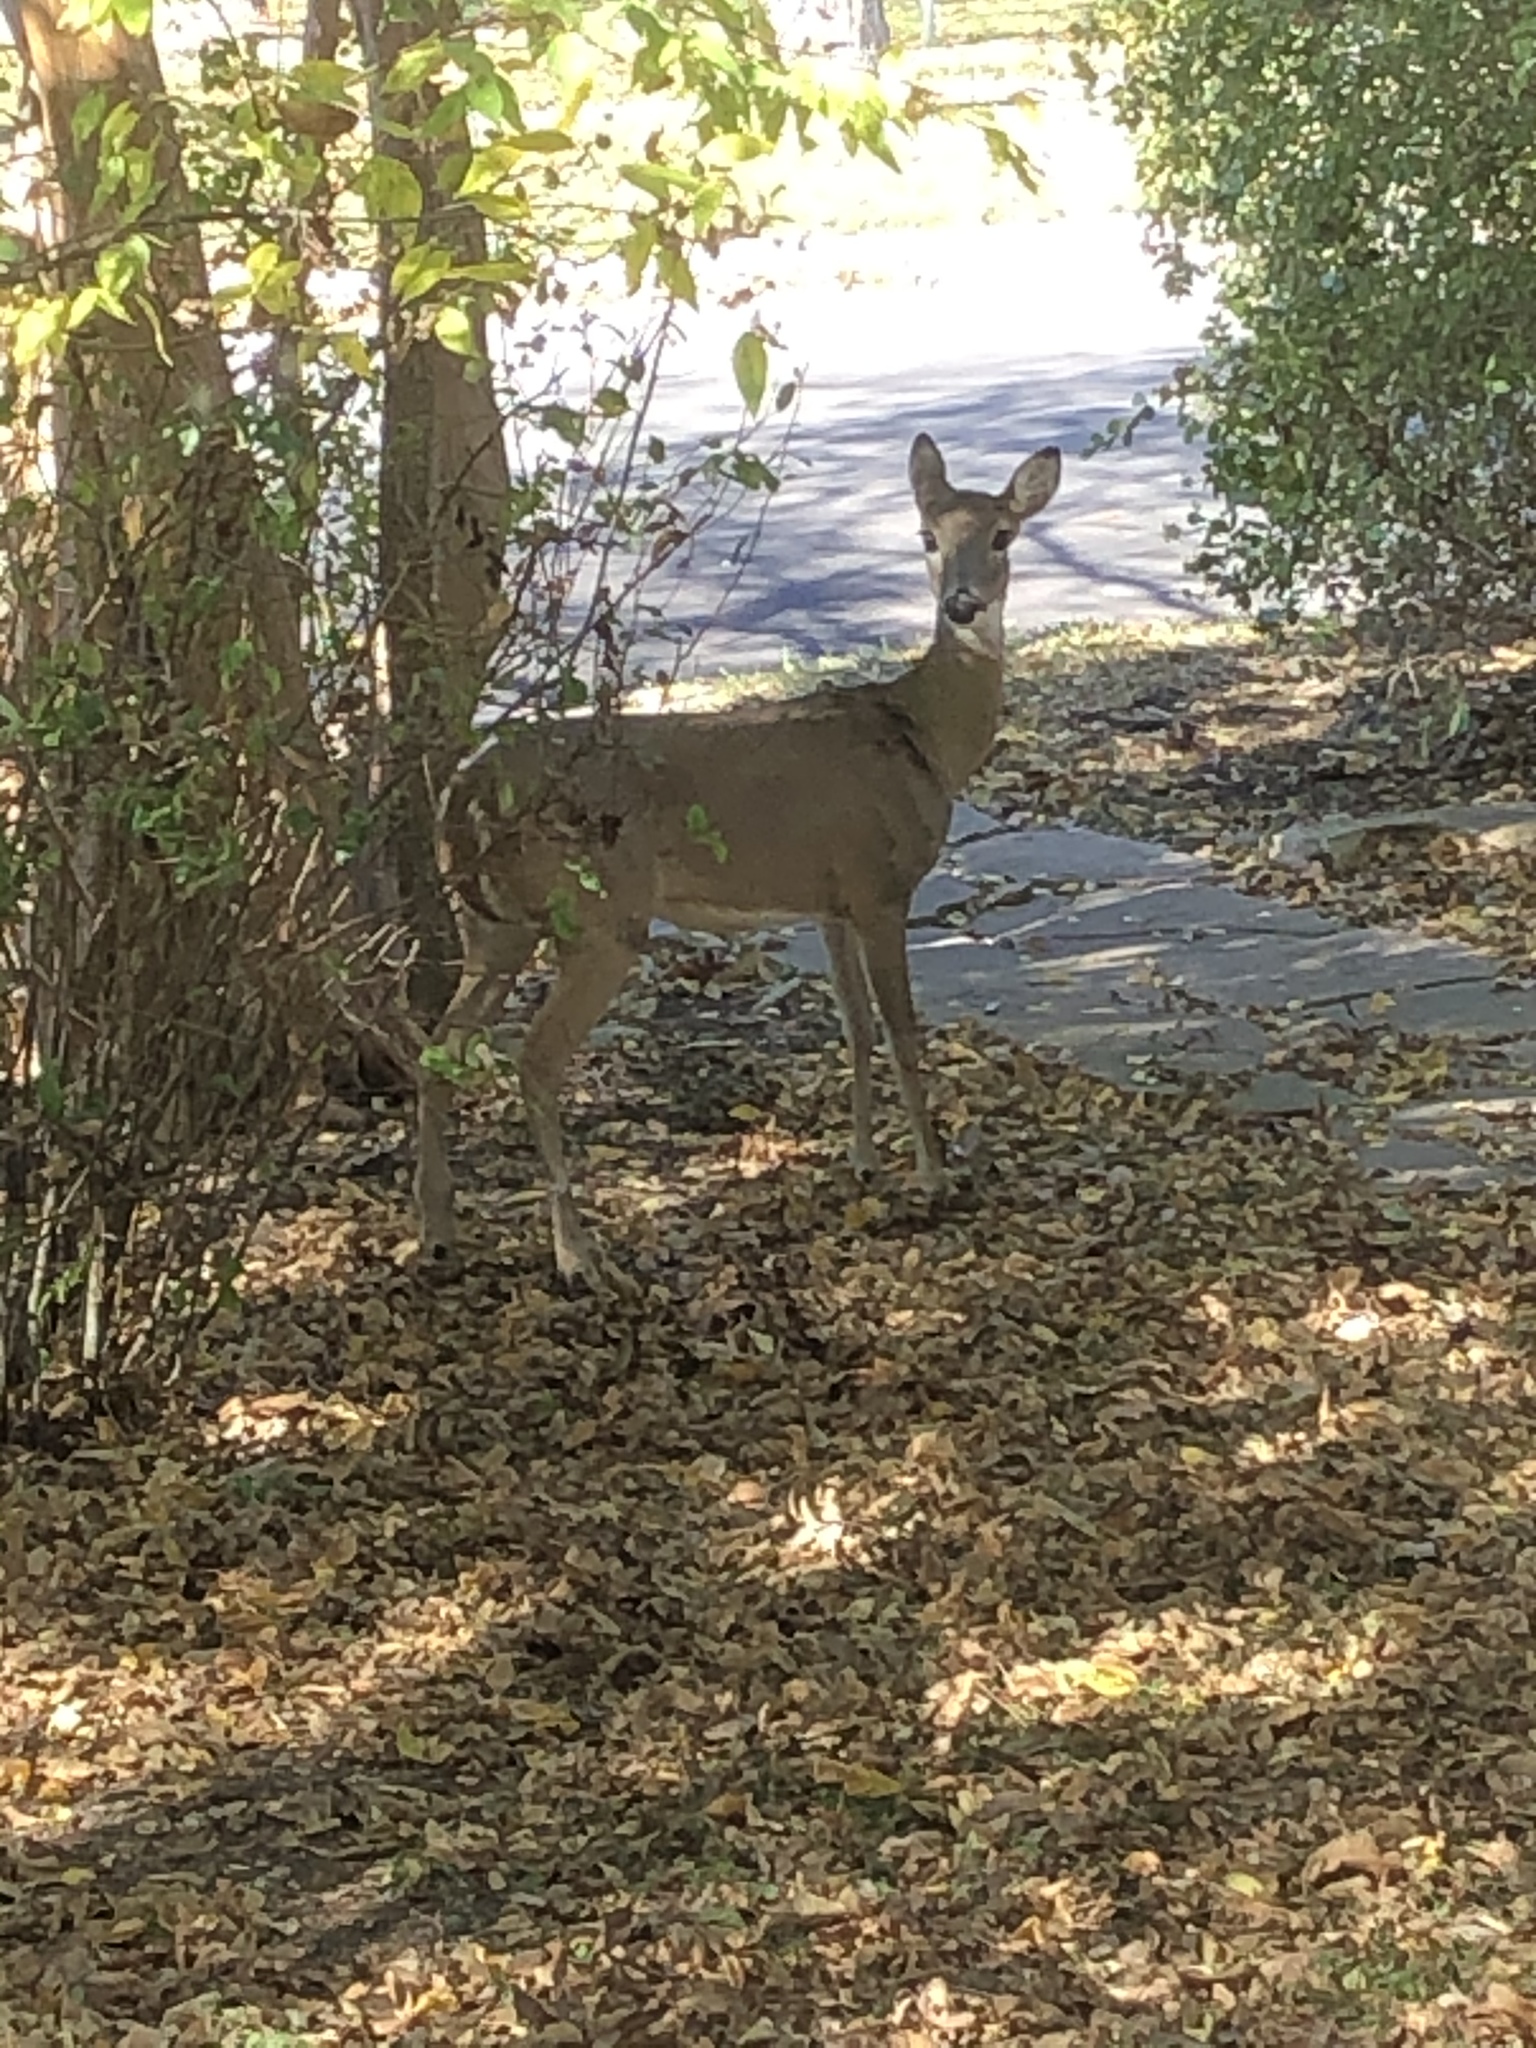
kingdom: Animalia
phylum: Chordata
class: Mammalia
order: Artiodactyla
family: Cervidae
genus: Odocoileus
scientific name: Odocoileus virginianus
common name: White-tailed deer
